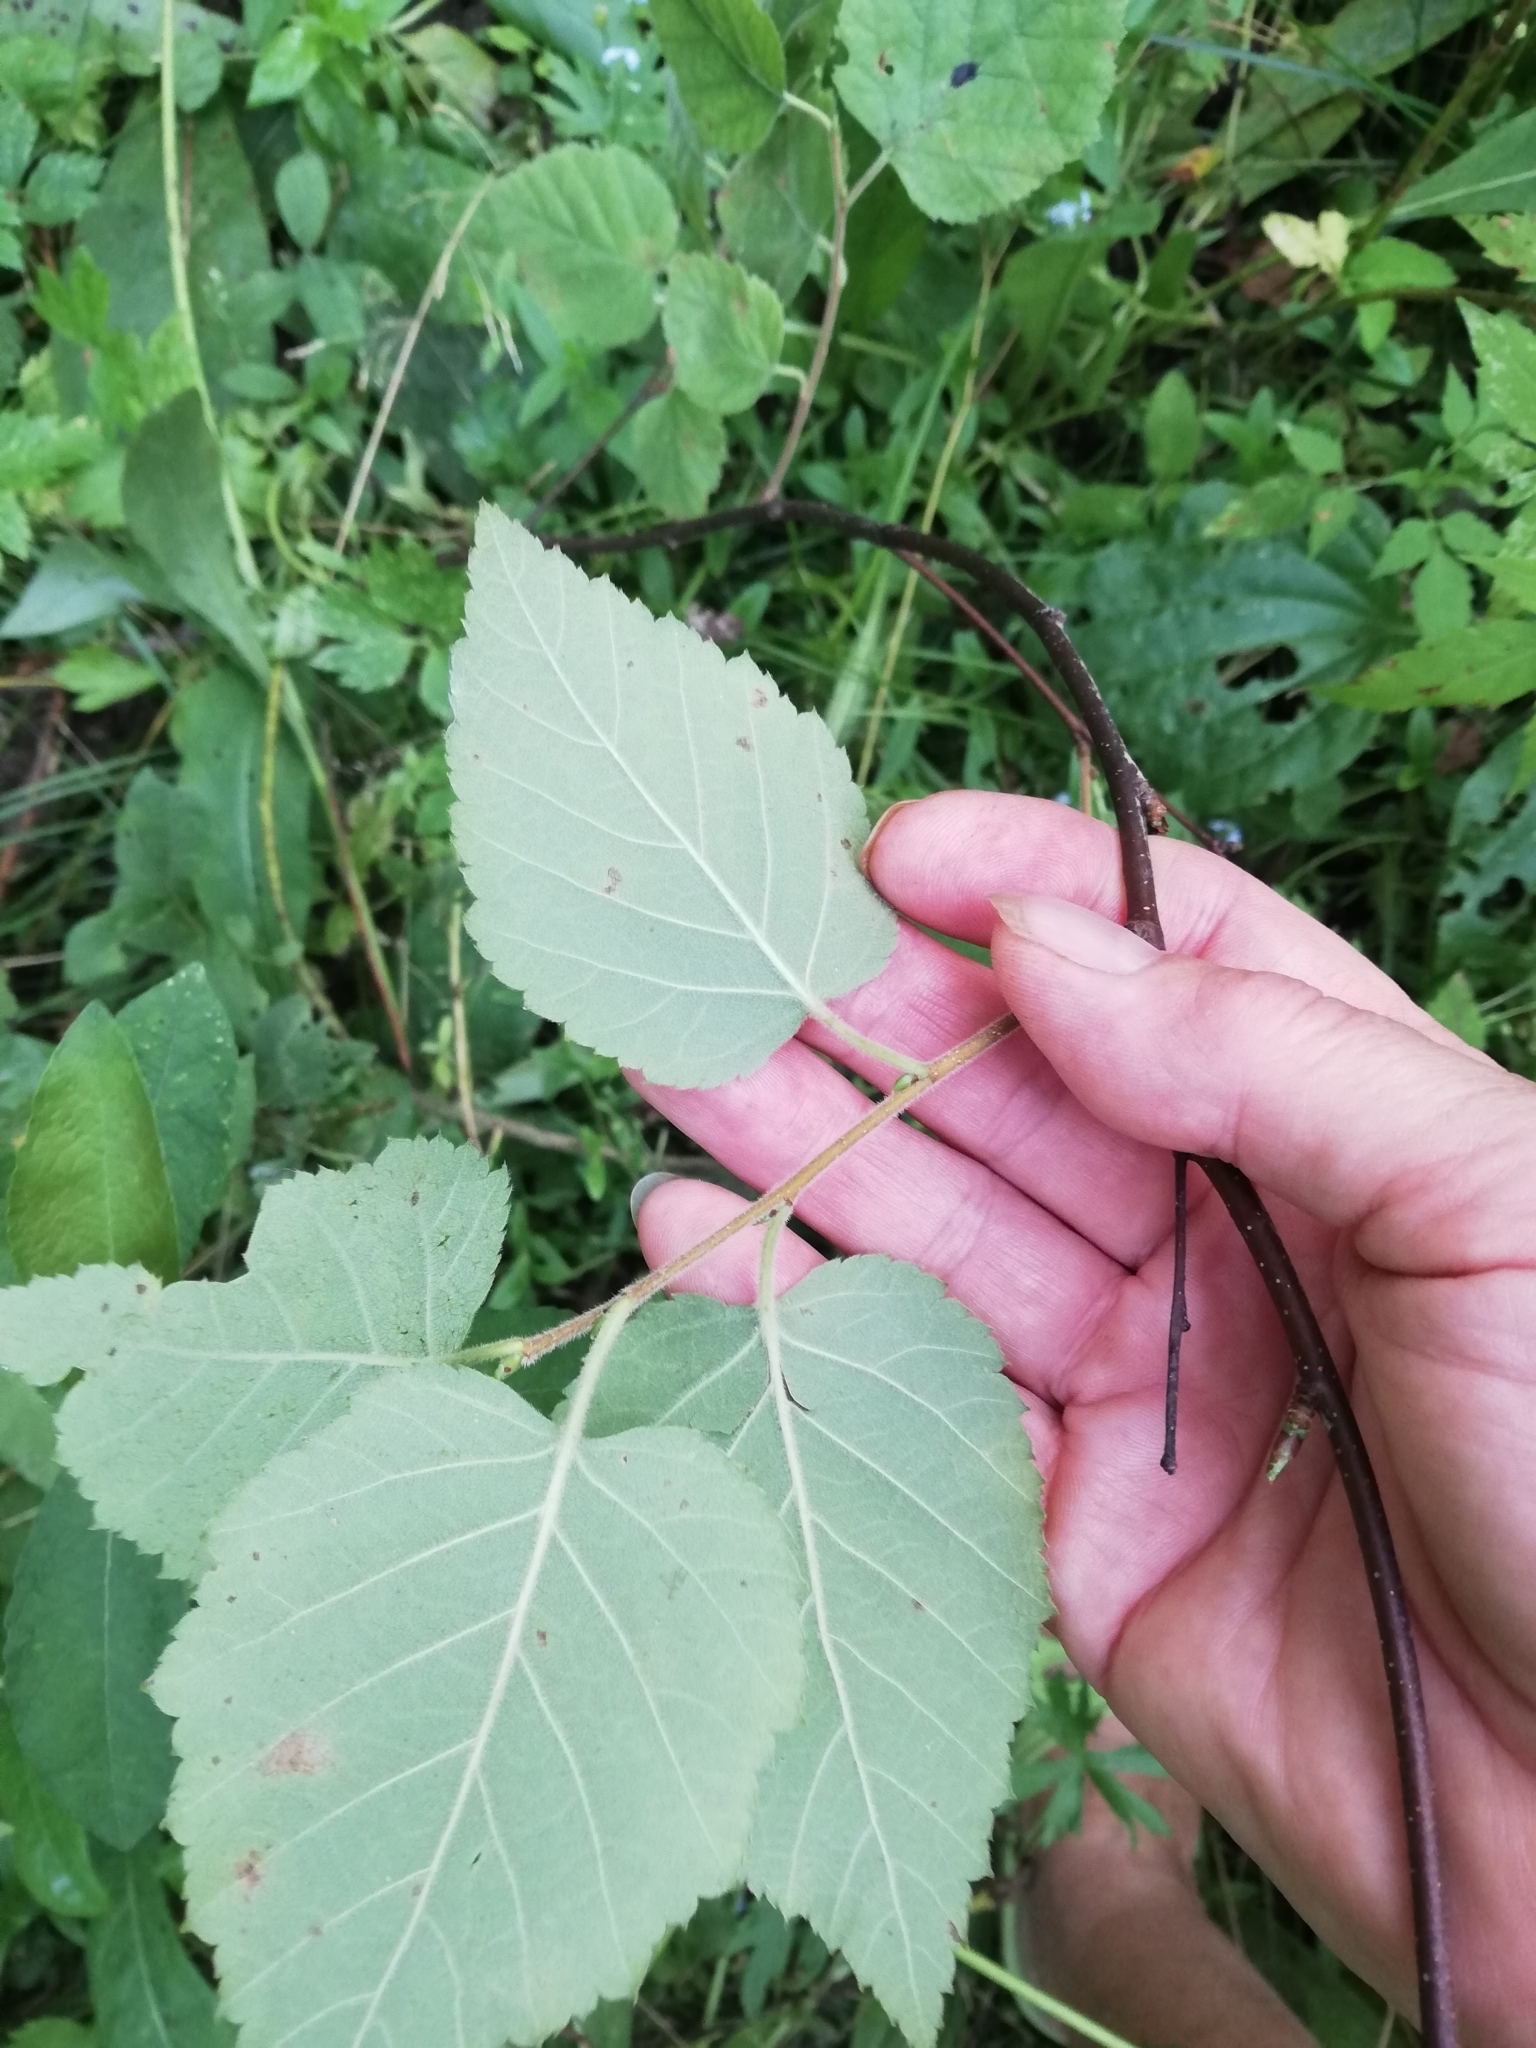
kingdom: Plantae
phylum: Tracheophyta
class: Magnoliopsida
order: Fagales
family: Betulaceae
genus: Betula
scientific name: Betula pubescens
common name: Downy birch
